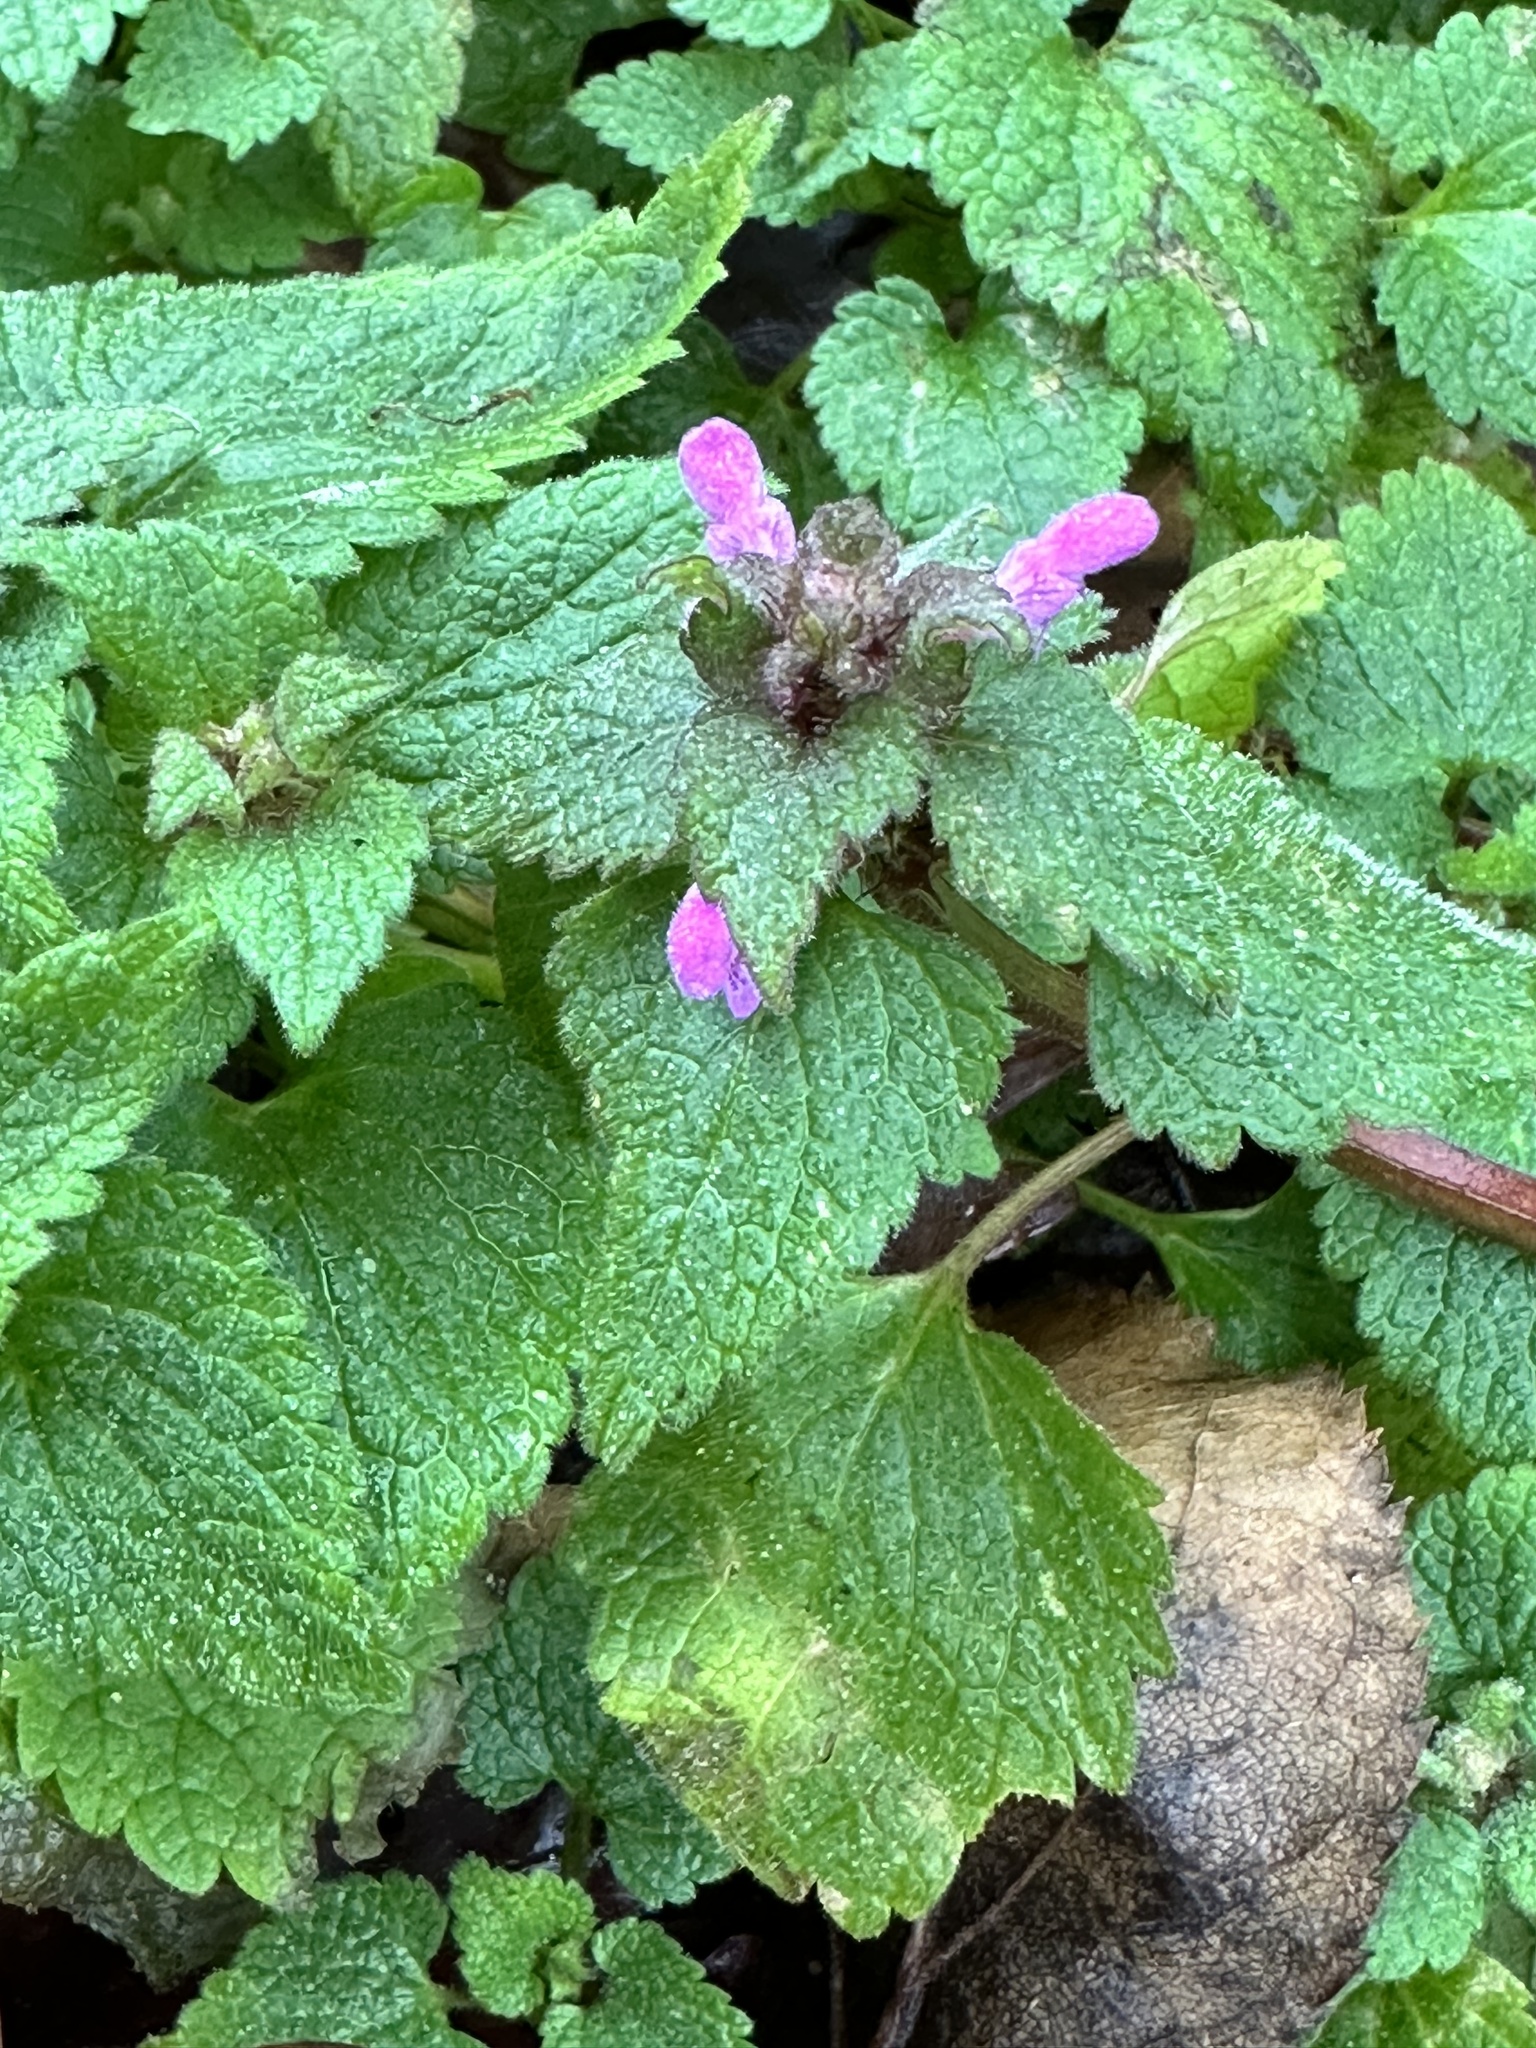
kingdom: Plantae
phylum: Tracheophyta
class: Magnoliopsida
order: Lamiales
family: Lamiaceae
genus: Lamium
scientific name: Lamium purpureum
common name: Red dead-nettle
